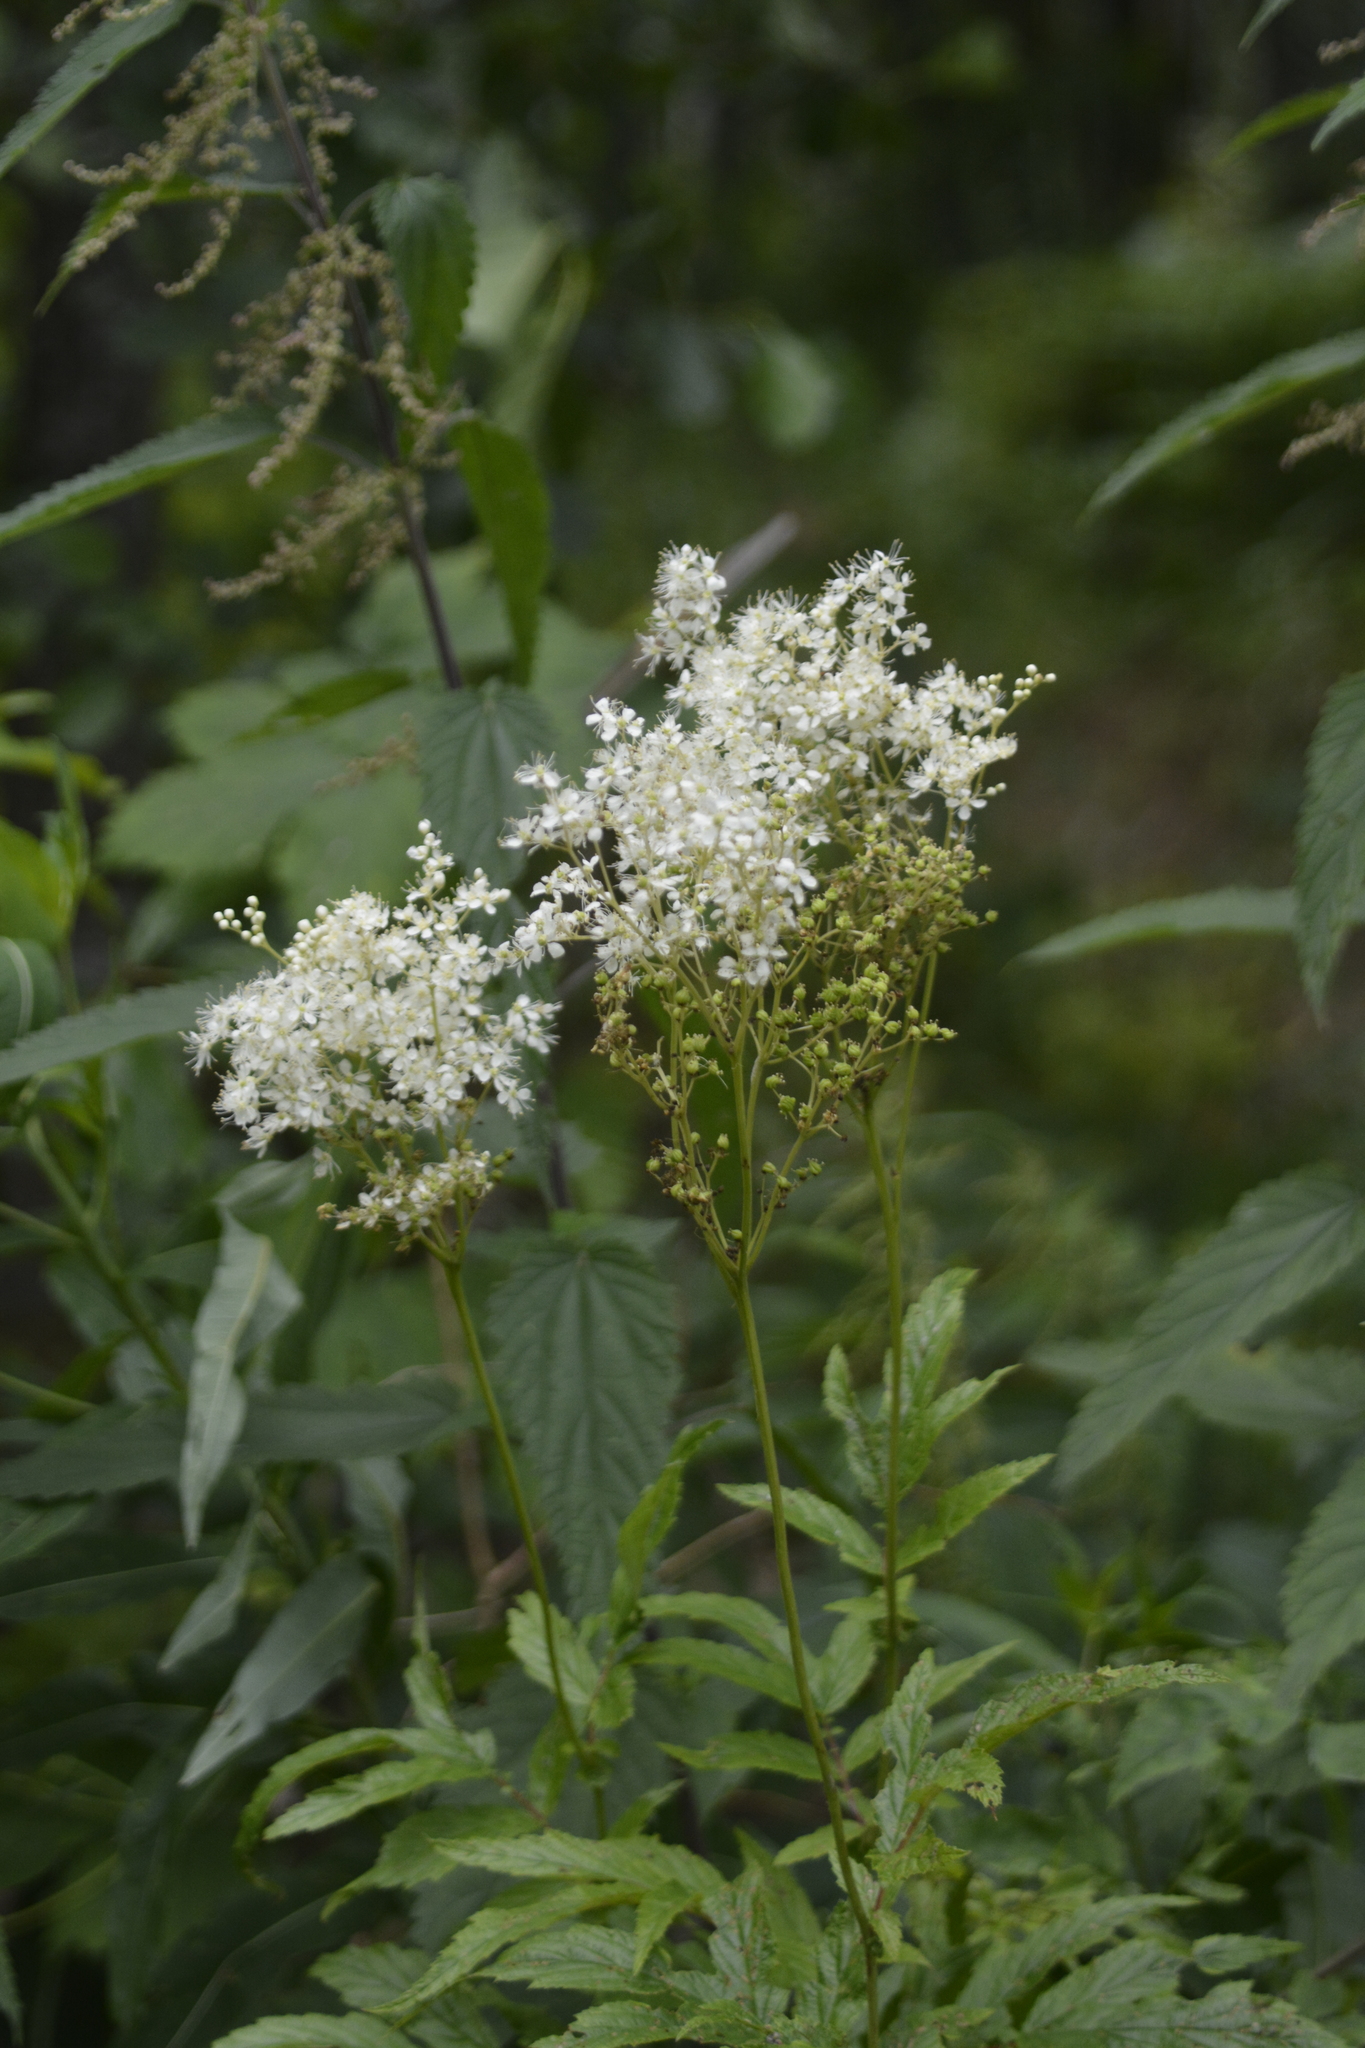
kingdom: Plantae
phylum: Tracheophyta
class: Magnoliopsida
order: Rosales
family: Rosaceae
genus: Filipendula
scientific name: Filipendula ulmaria
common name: Meadowsweet
